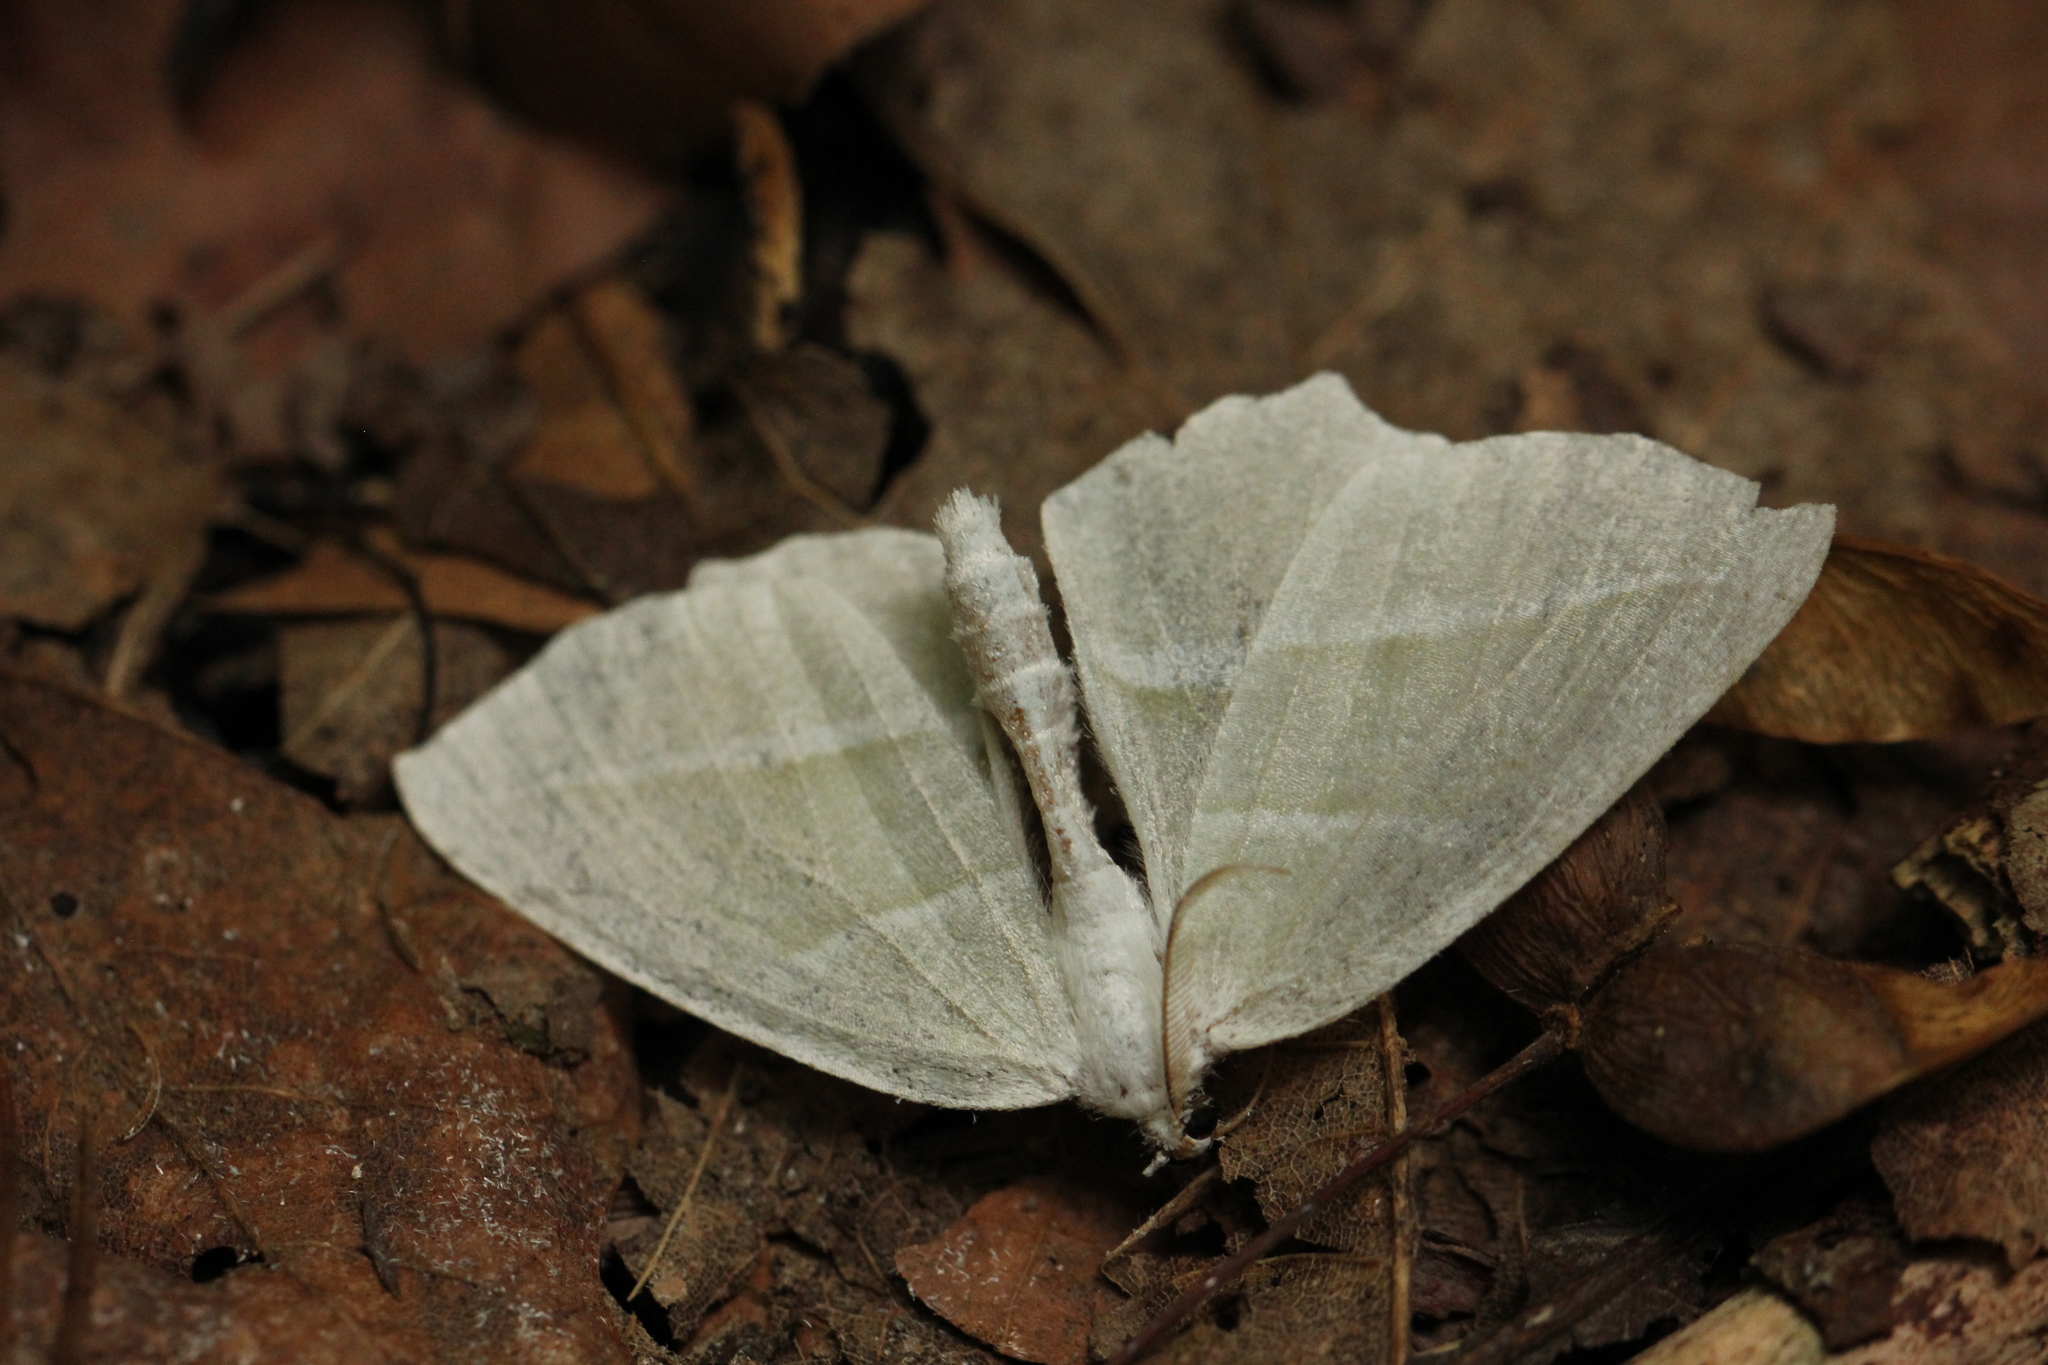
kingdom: Animalia
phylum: Arthropoda
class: Insecta
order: Lepidoptera
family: Geometridae
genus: Campaea
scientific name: Campaea perlata
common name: Fringed looper
